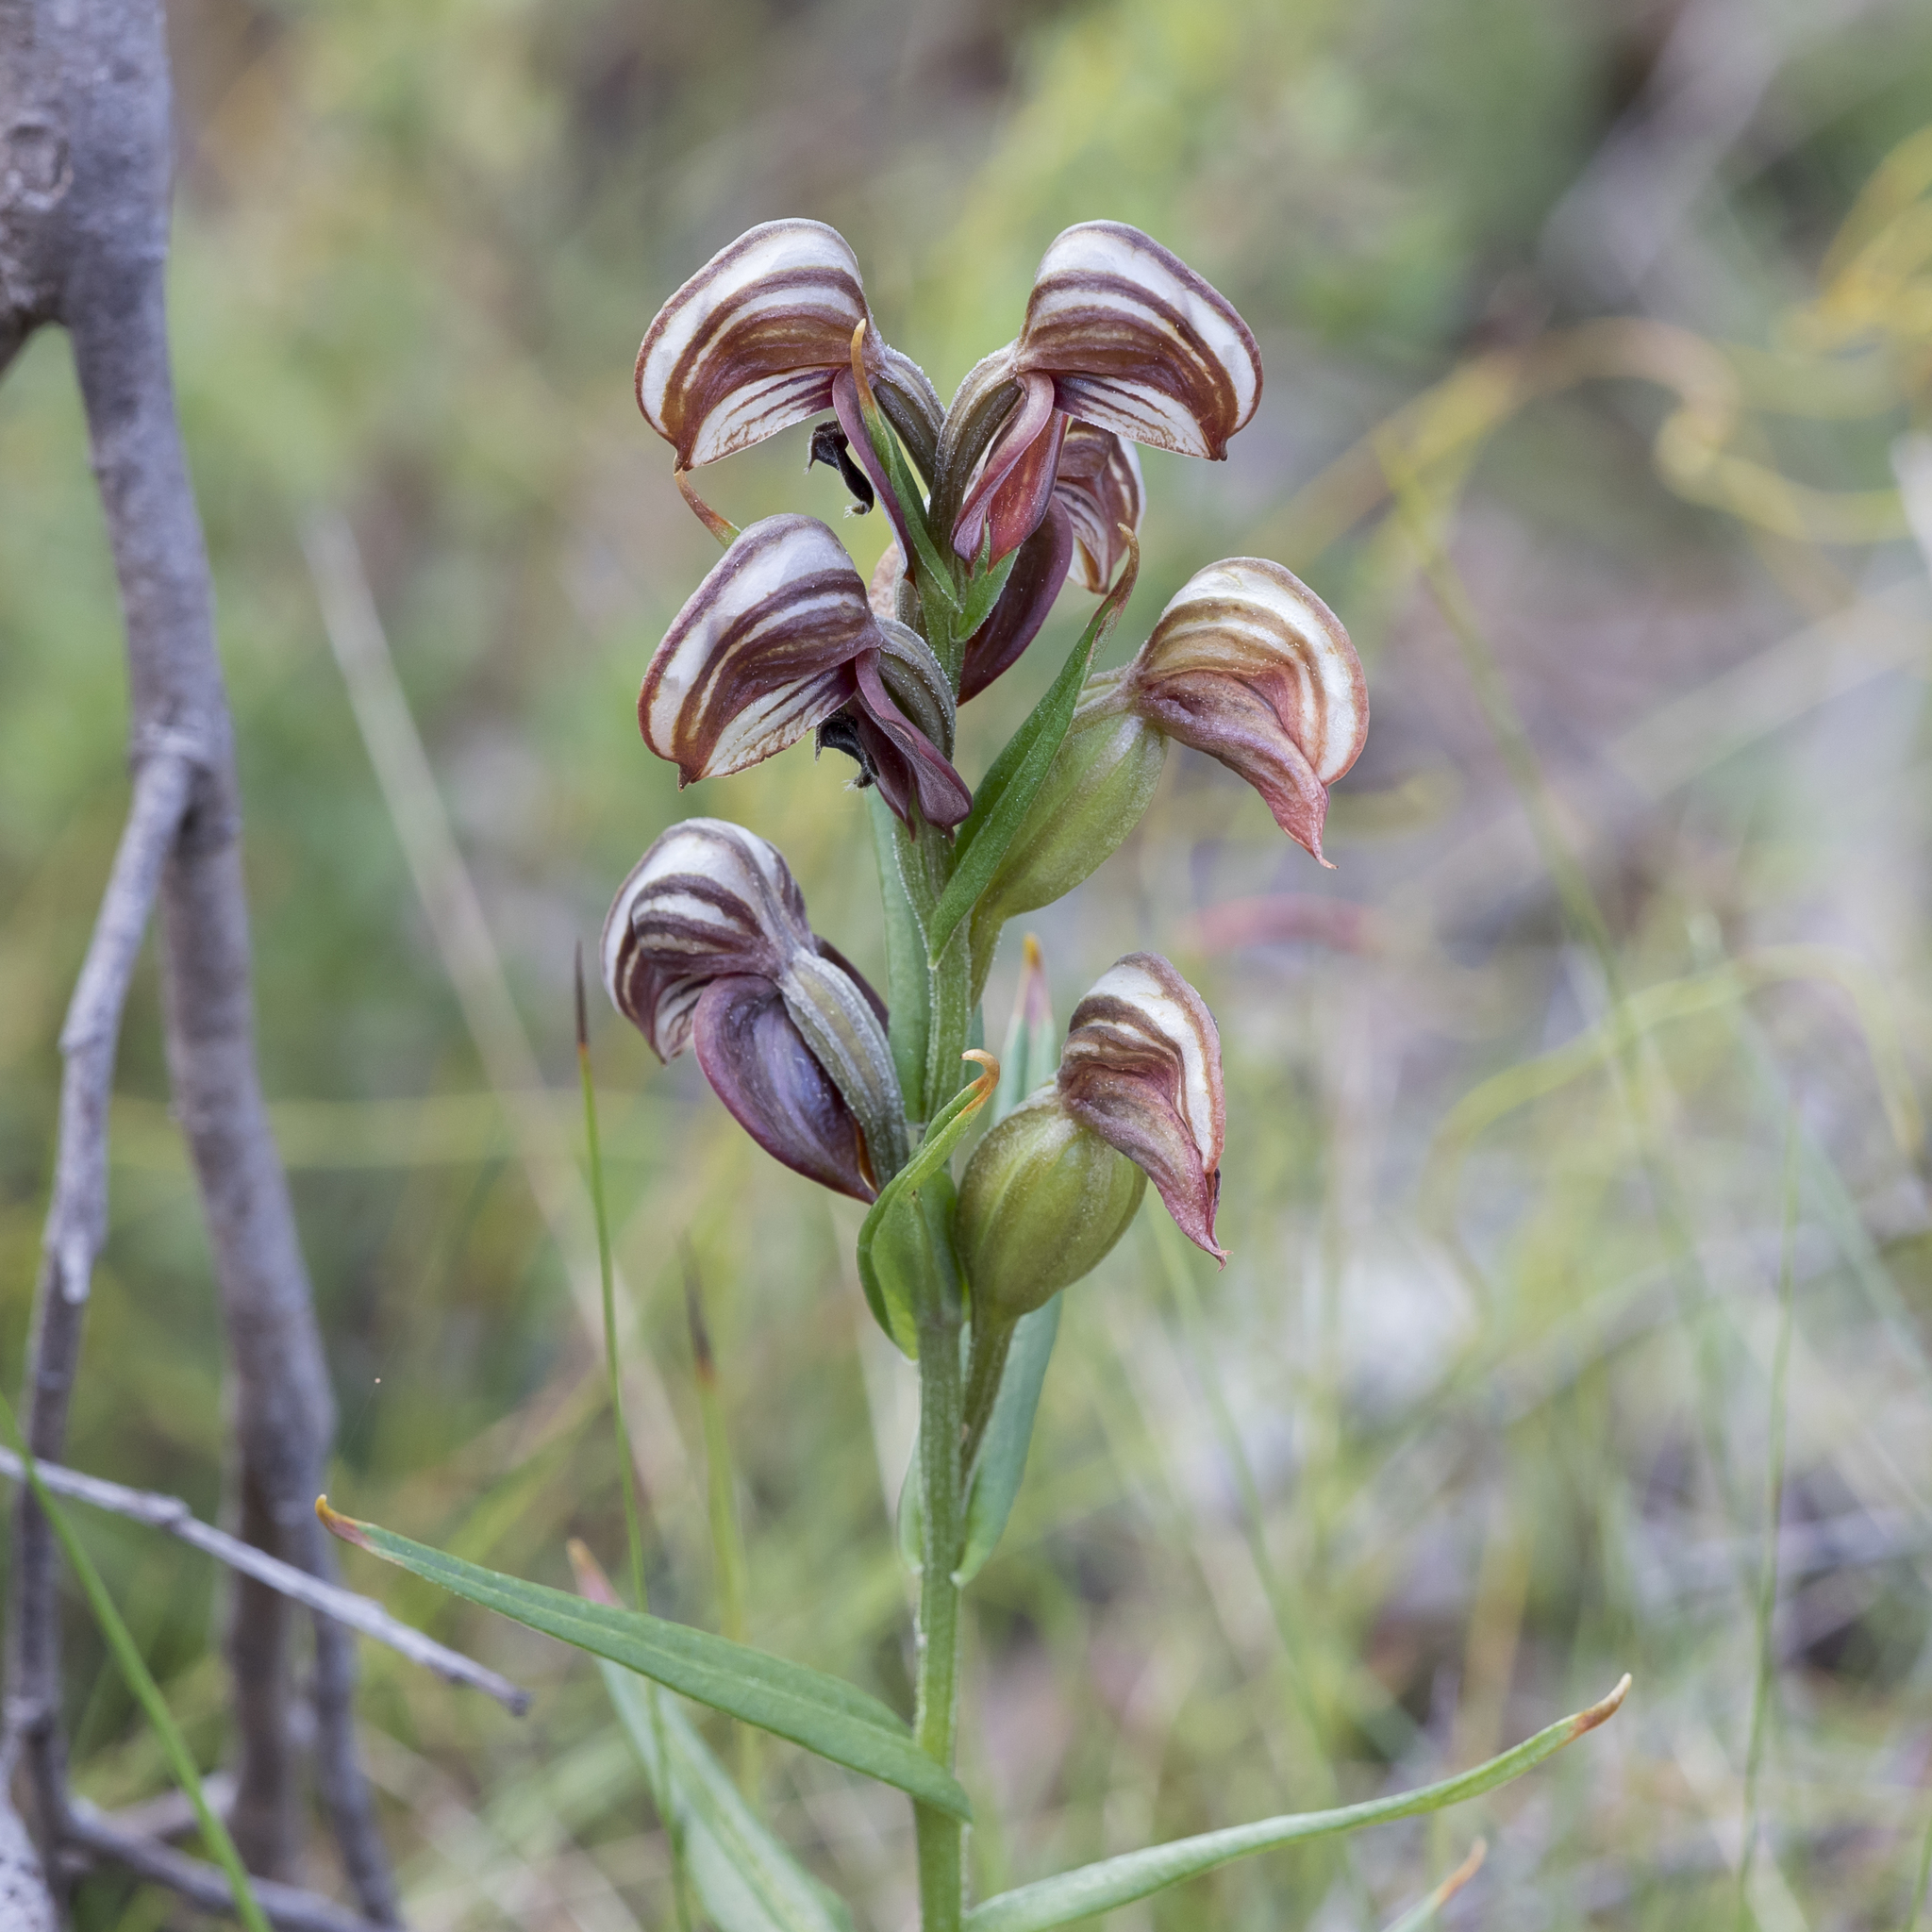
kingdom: Plantae
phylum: Tracheophyta
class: Liliopsida
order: Asparagales
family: Orchidaceae
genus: Pterostylis
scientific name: Pterostylis sanguinea
